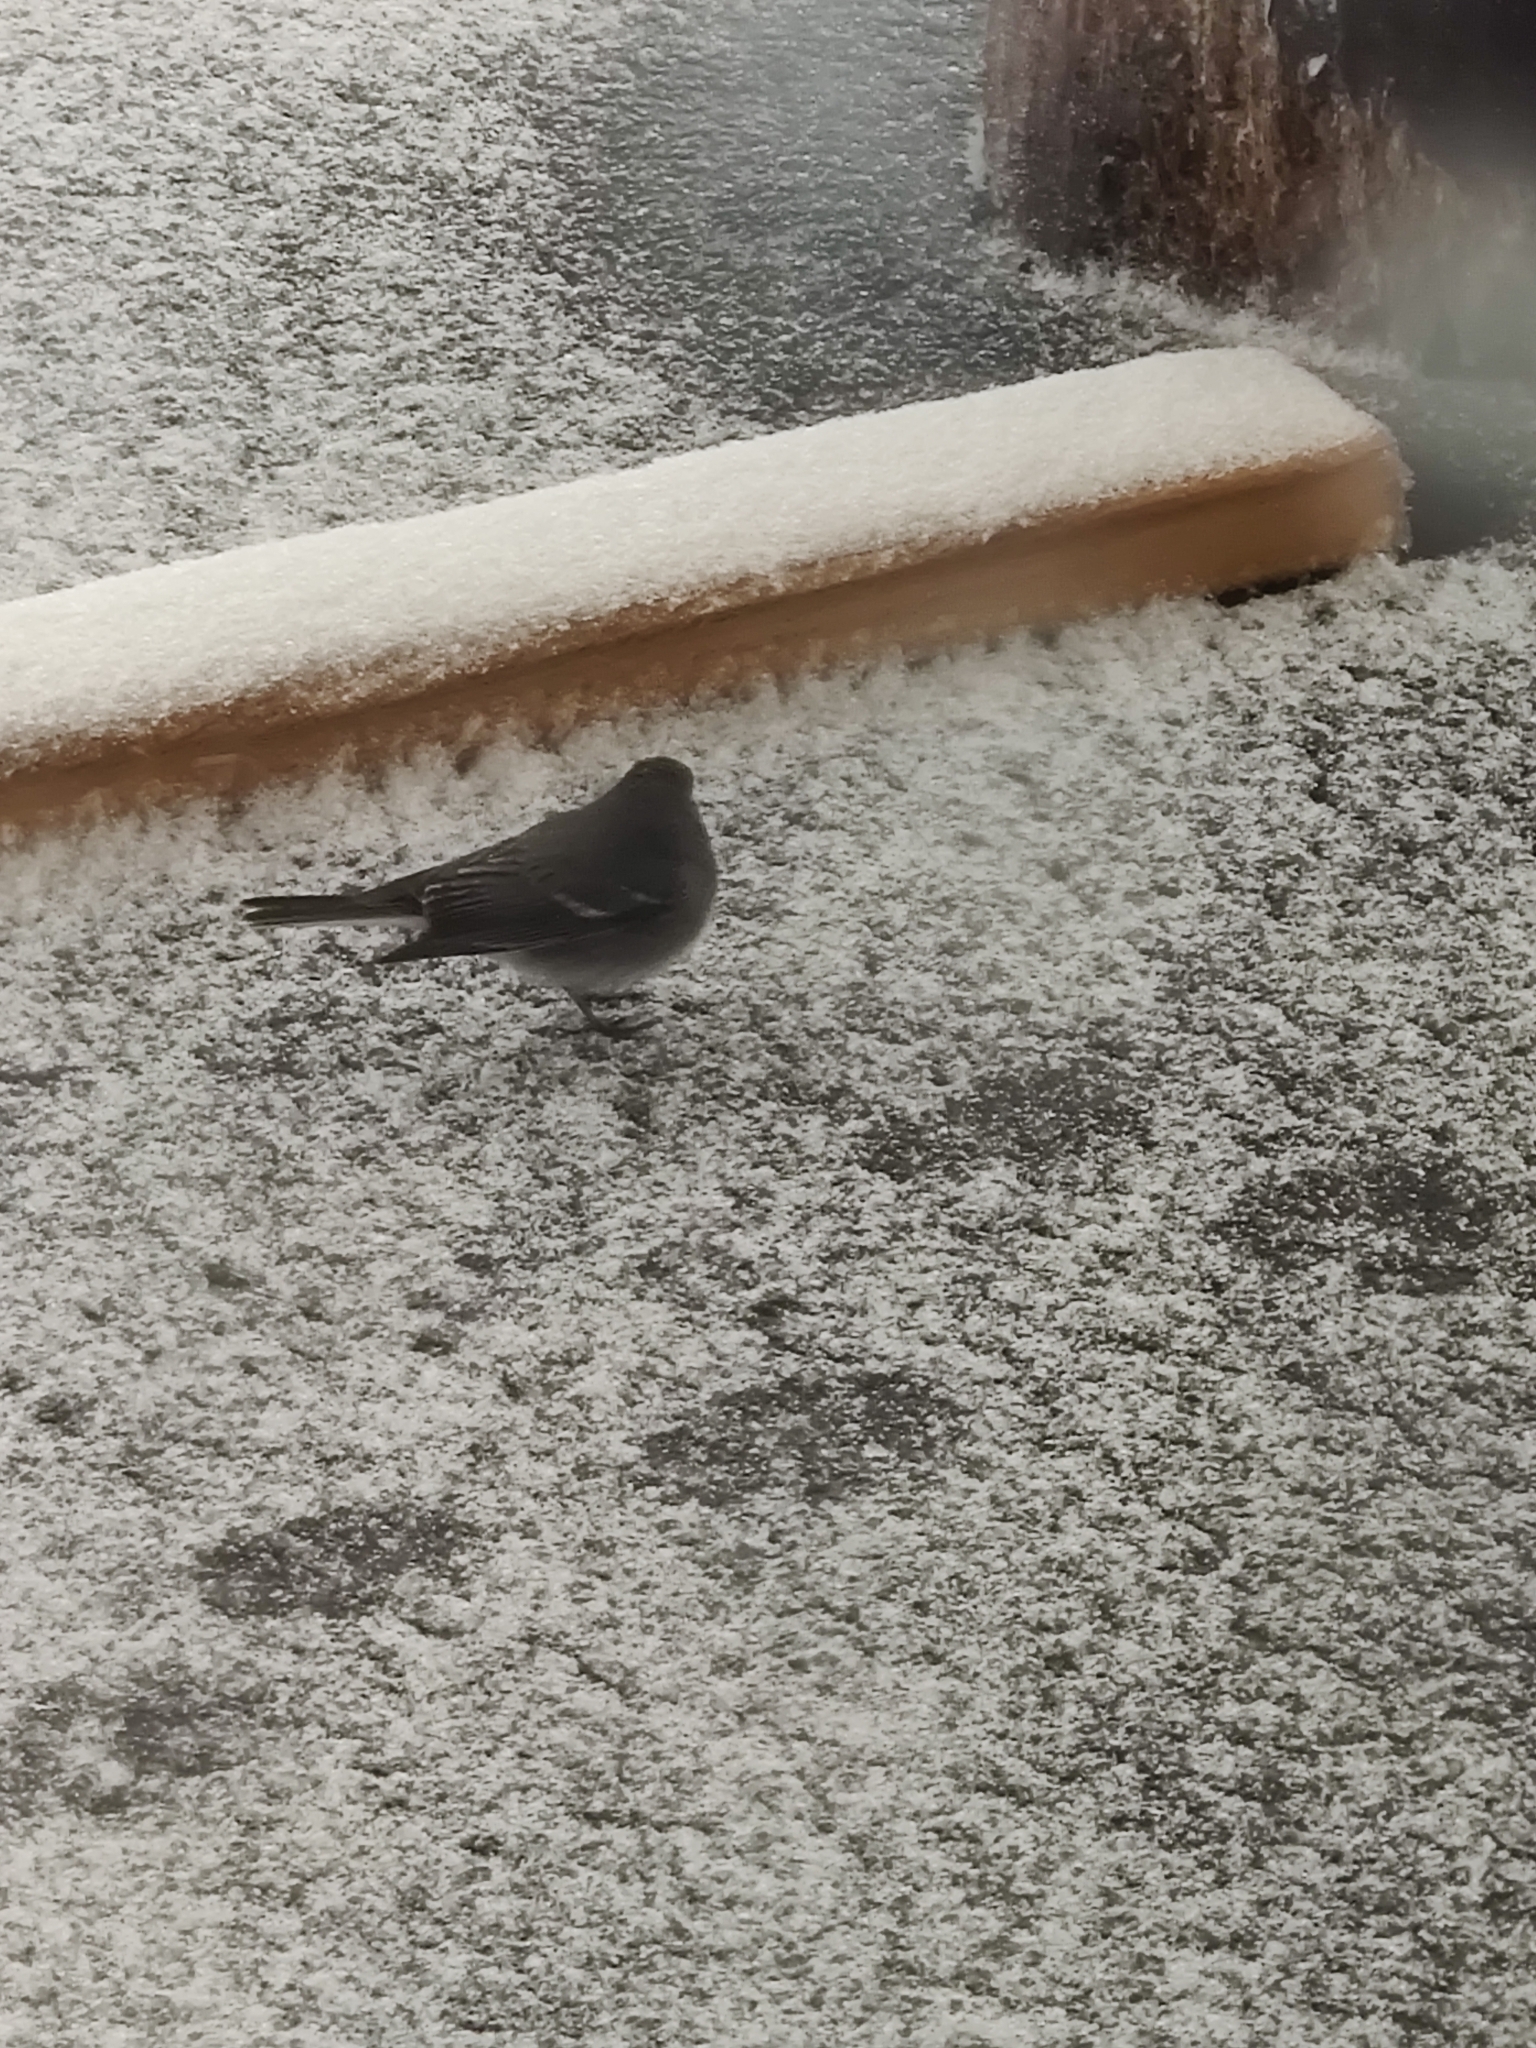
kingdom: Animalia
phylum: Chordata
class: Aves
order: Passeriformes
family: Passerellidae
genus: Junco
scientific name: Junco hyemalis
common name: Dark-eyed junco
